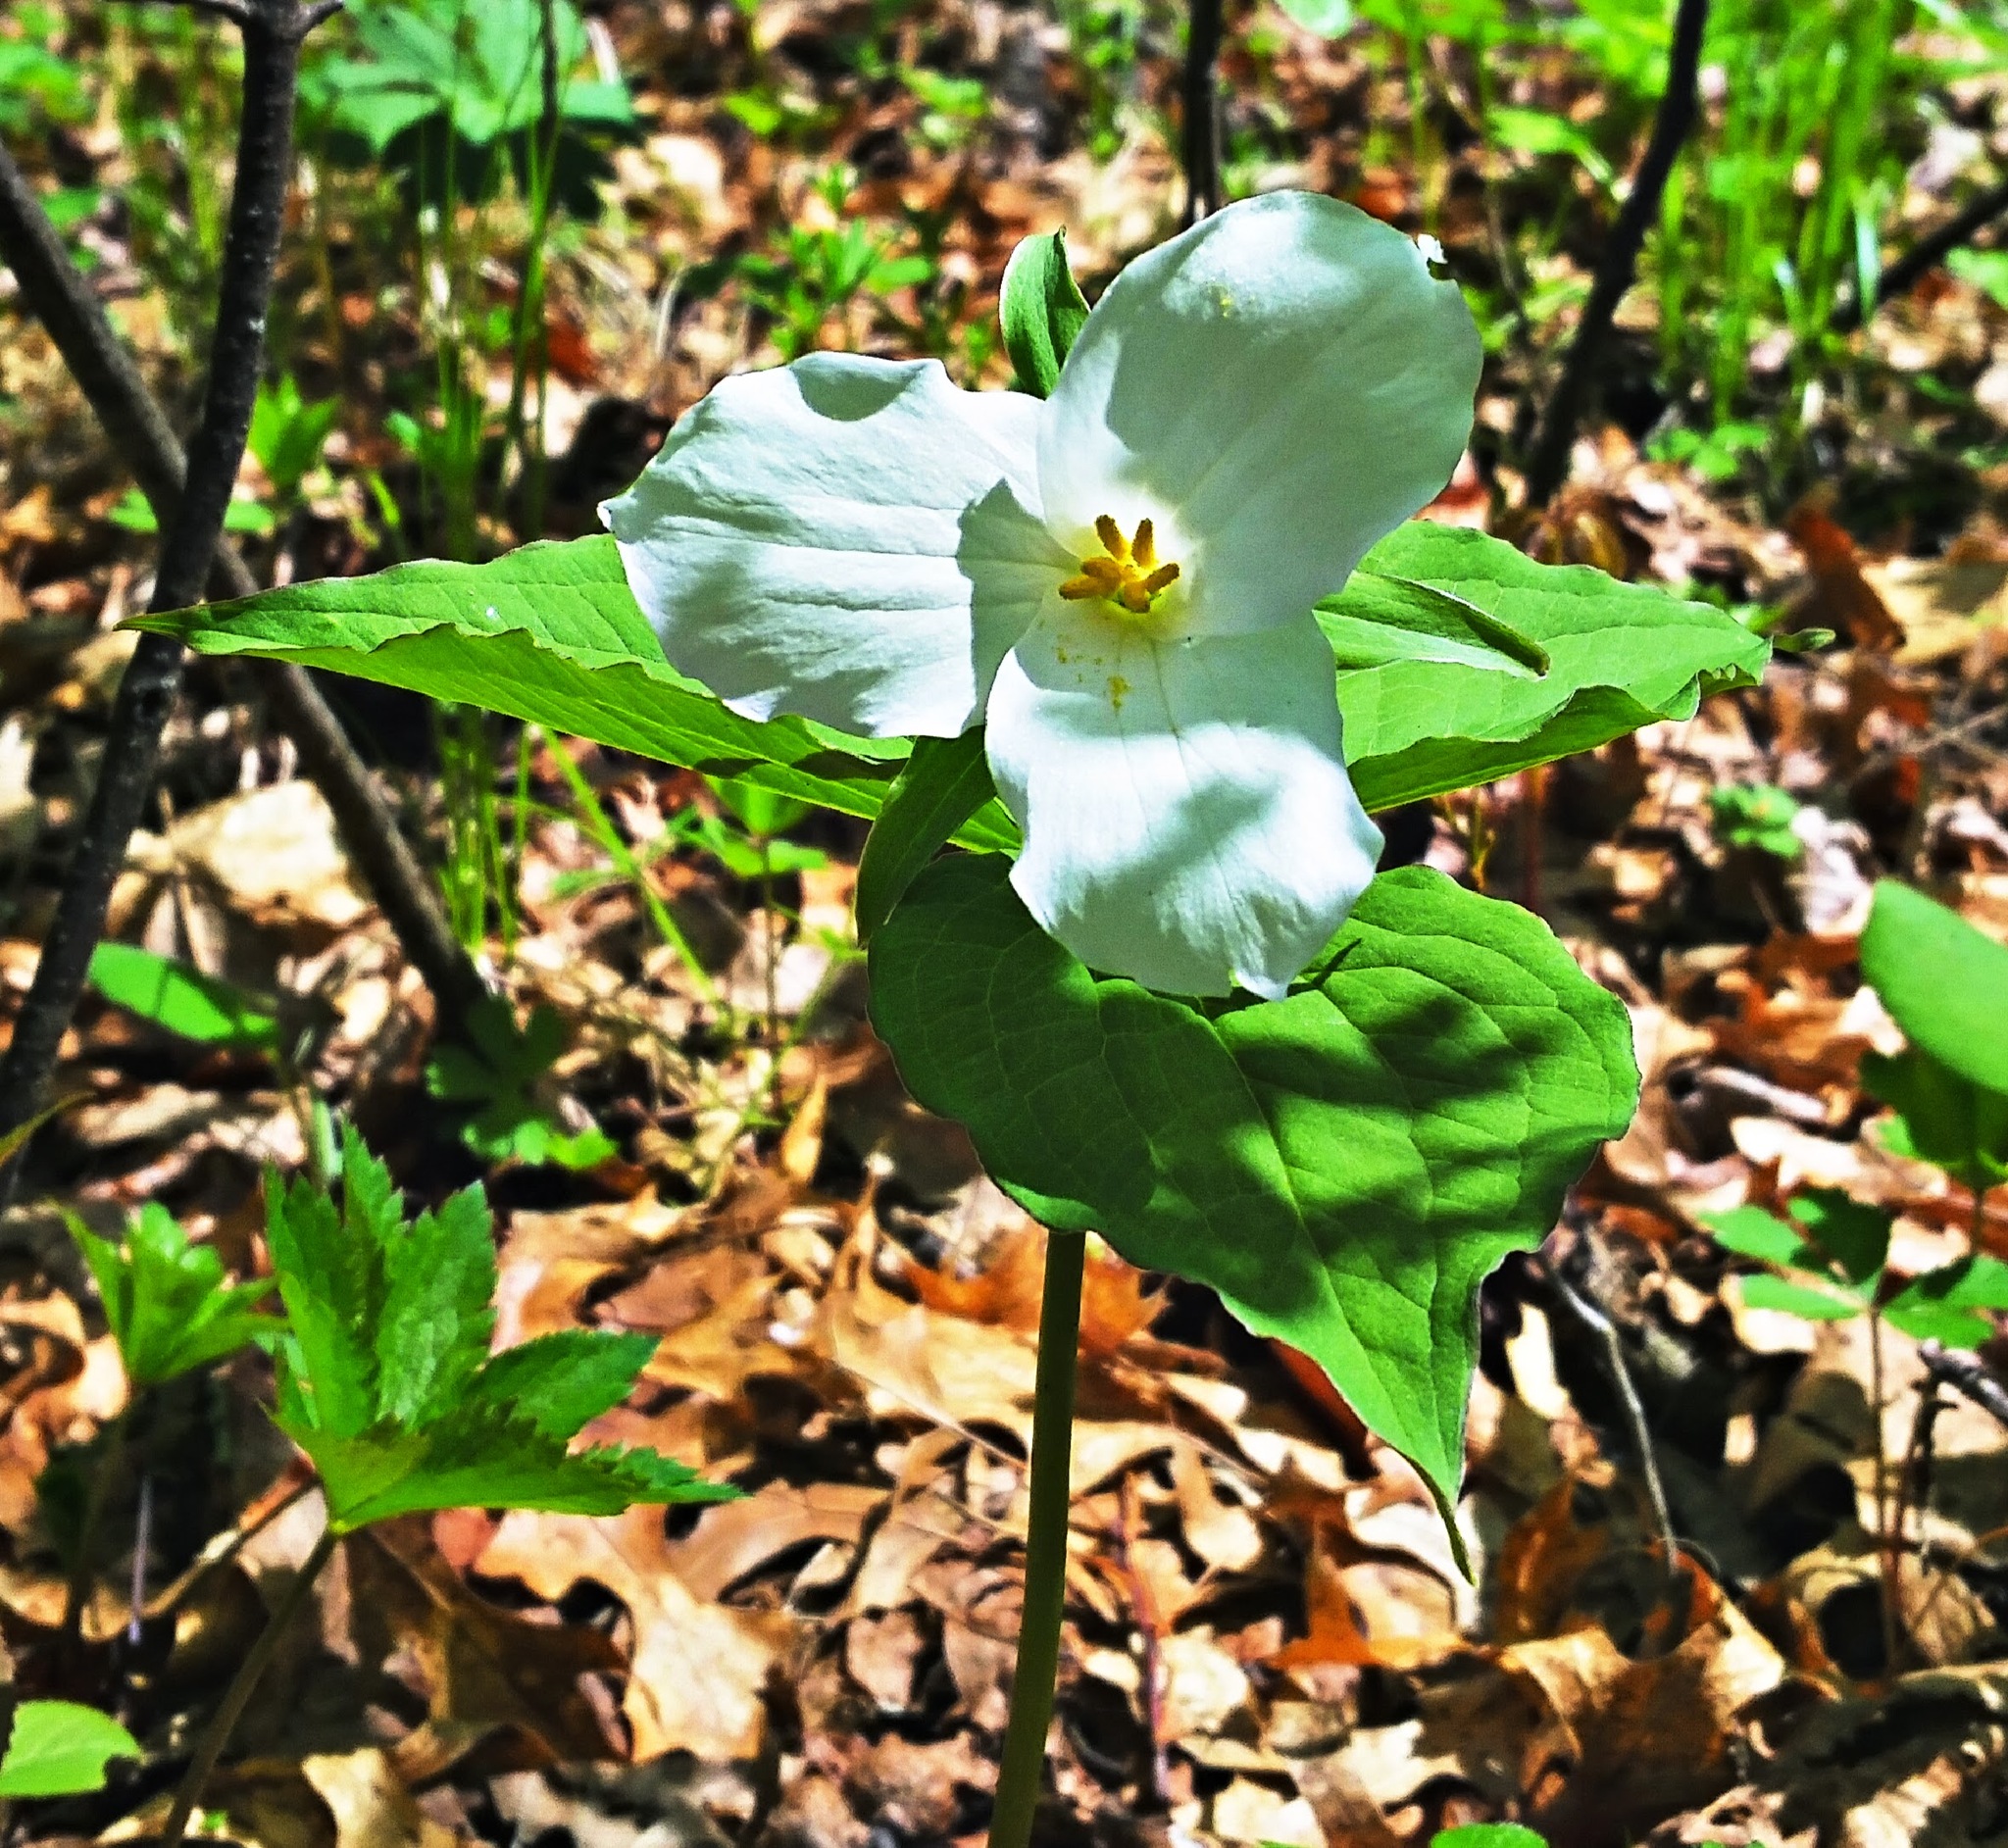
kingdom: Plantae
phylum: Tracheophyta
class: Liliopsida
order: Liliales
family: Melanthiaceae
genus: Trillium
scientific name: Trillium grandiflorum
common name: Great white trillium
